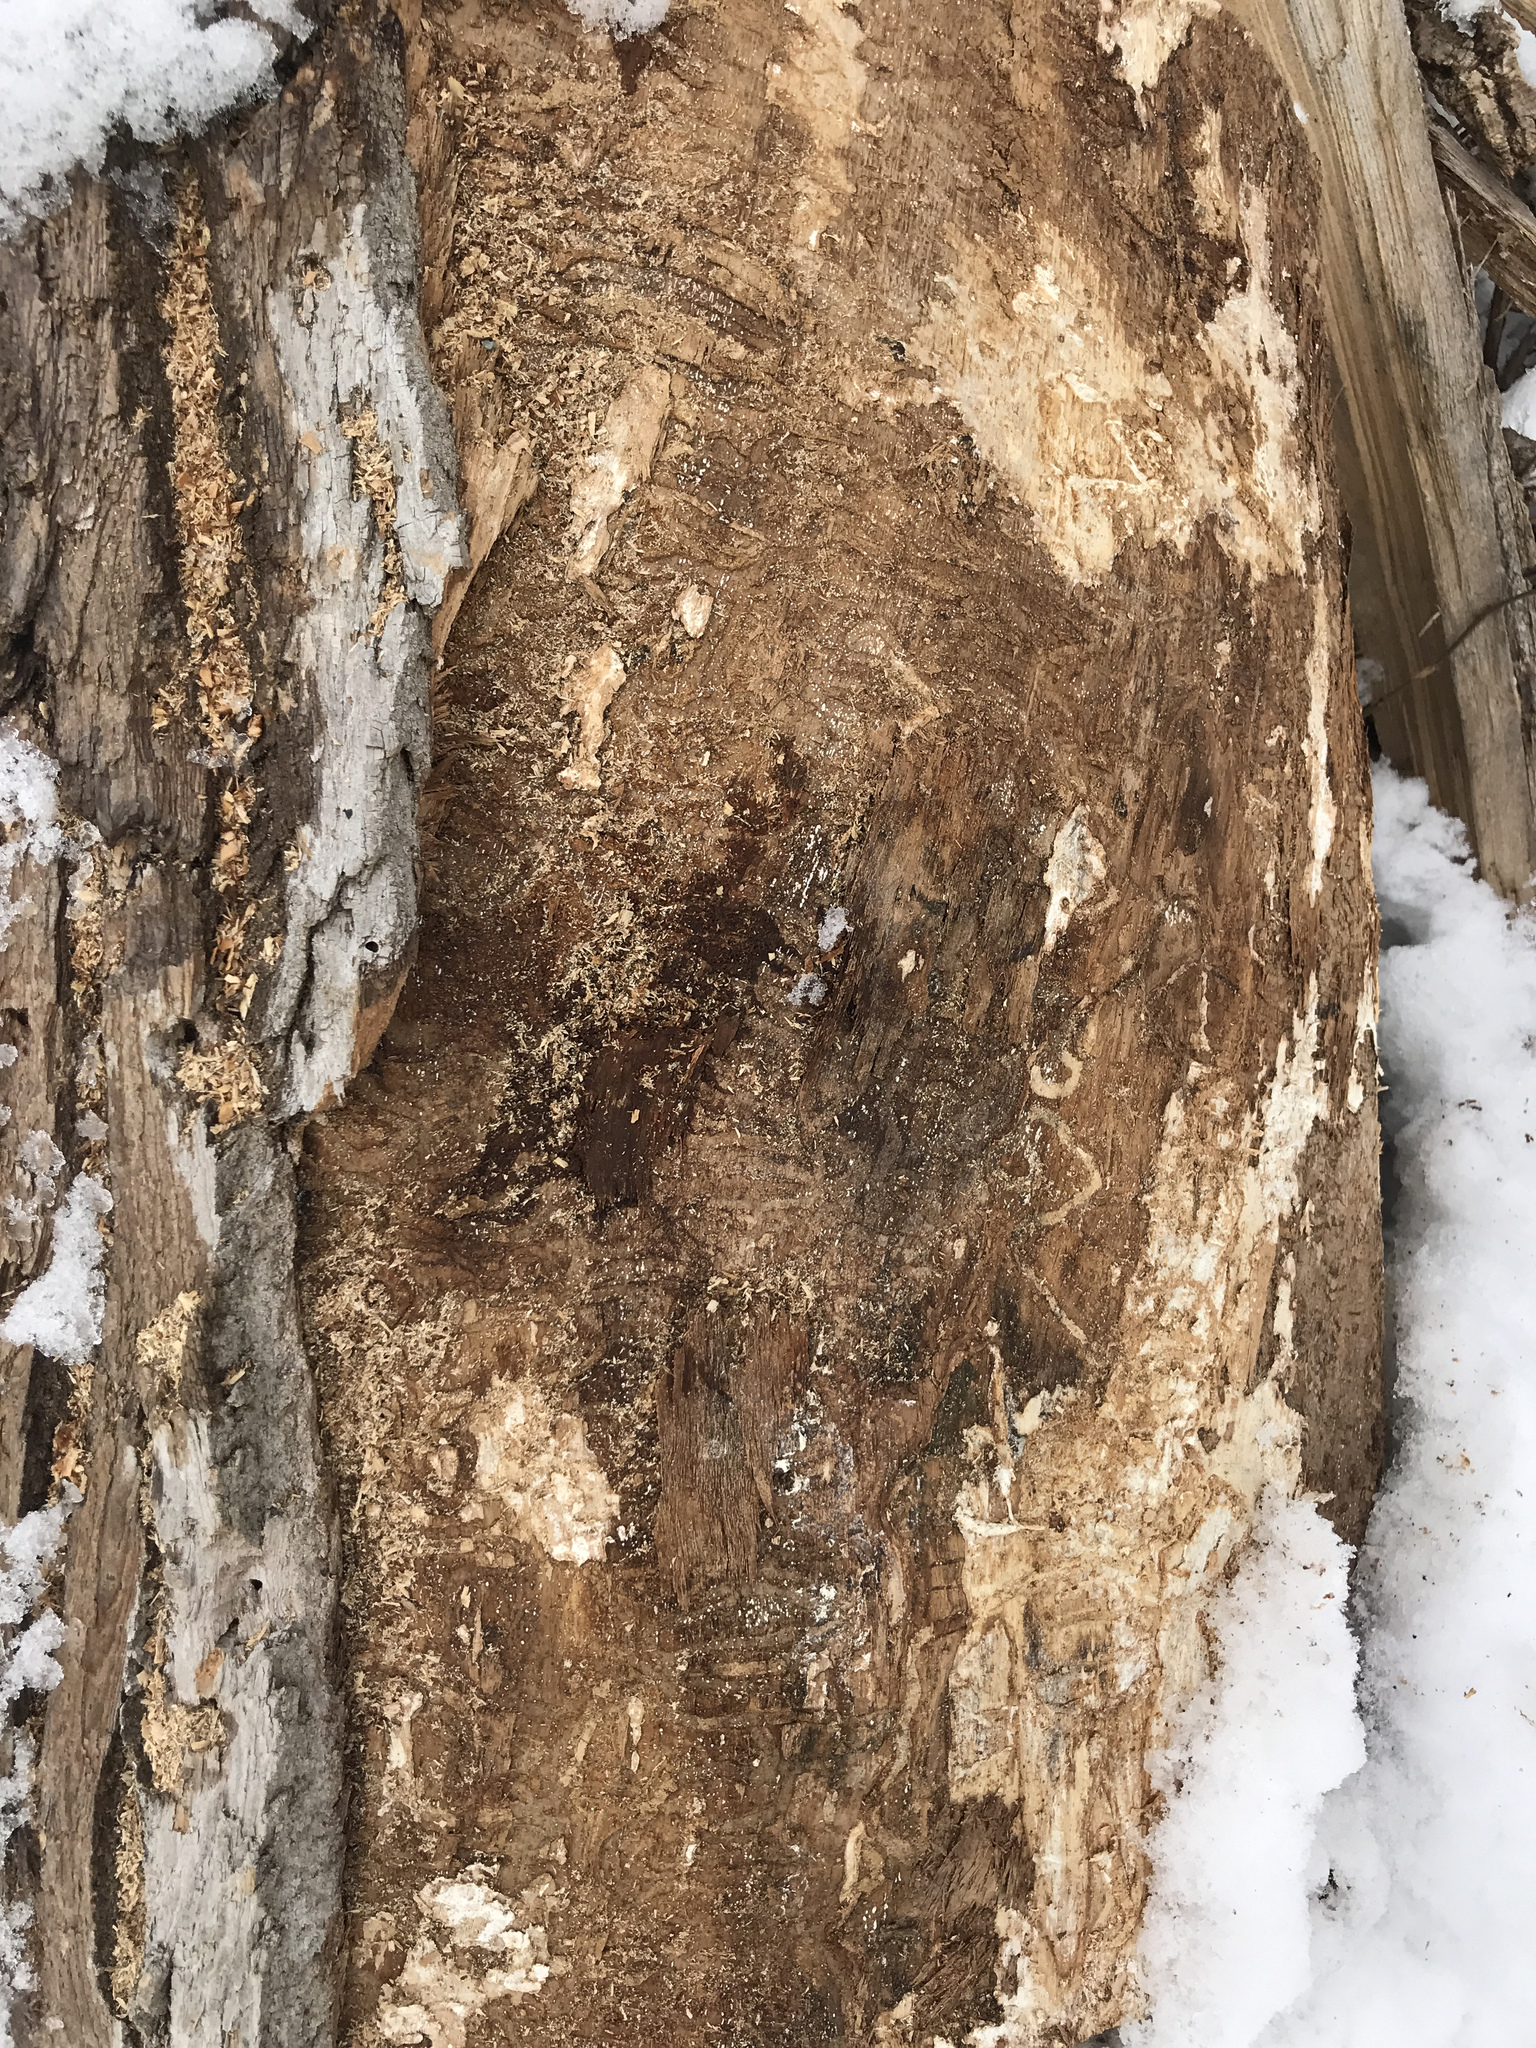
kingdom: Animalia
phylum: Arthropoda
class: Insecta
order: Coleoptera
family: Buprestidae
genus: Agrilus
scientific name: Agrilus planipennis
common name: Emerald ash borer
